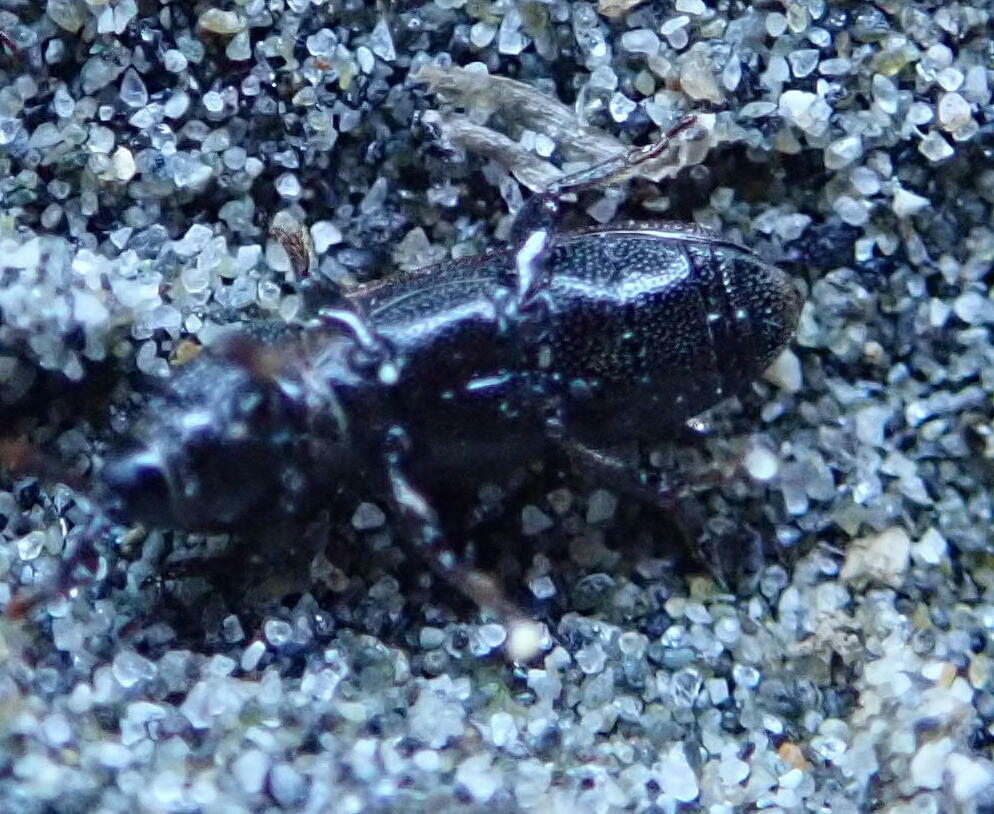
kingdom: Animalia
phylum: Arthropoda
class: Insecta
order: Coleoptera
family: Curculionidae
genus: Mesites
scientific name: Mesites pallidipennis
